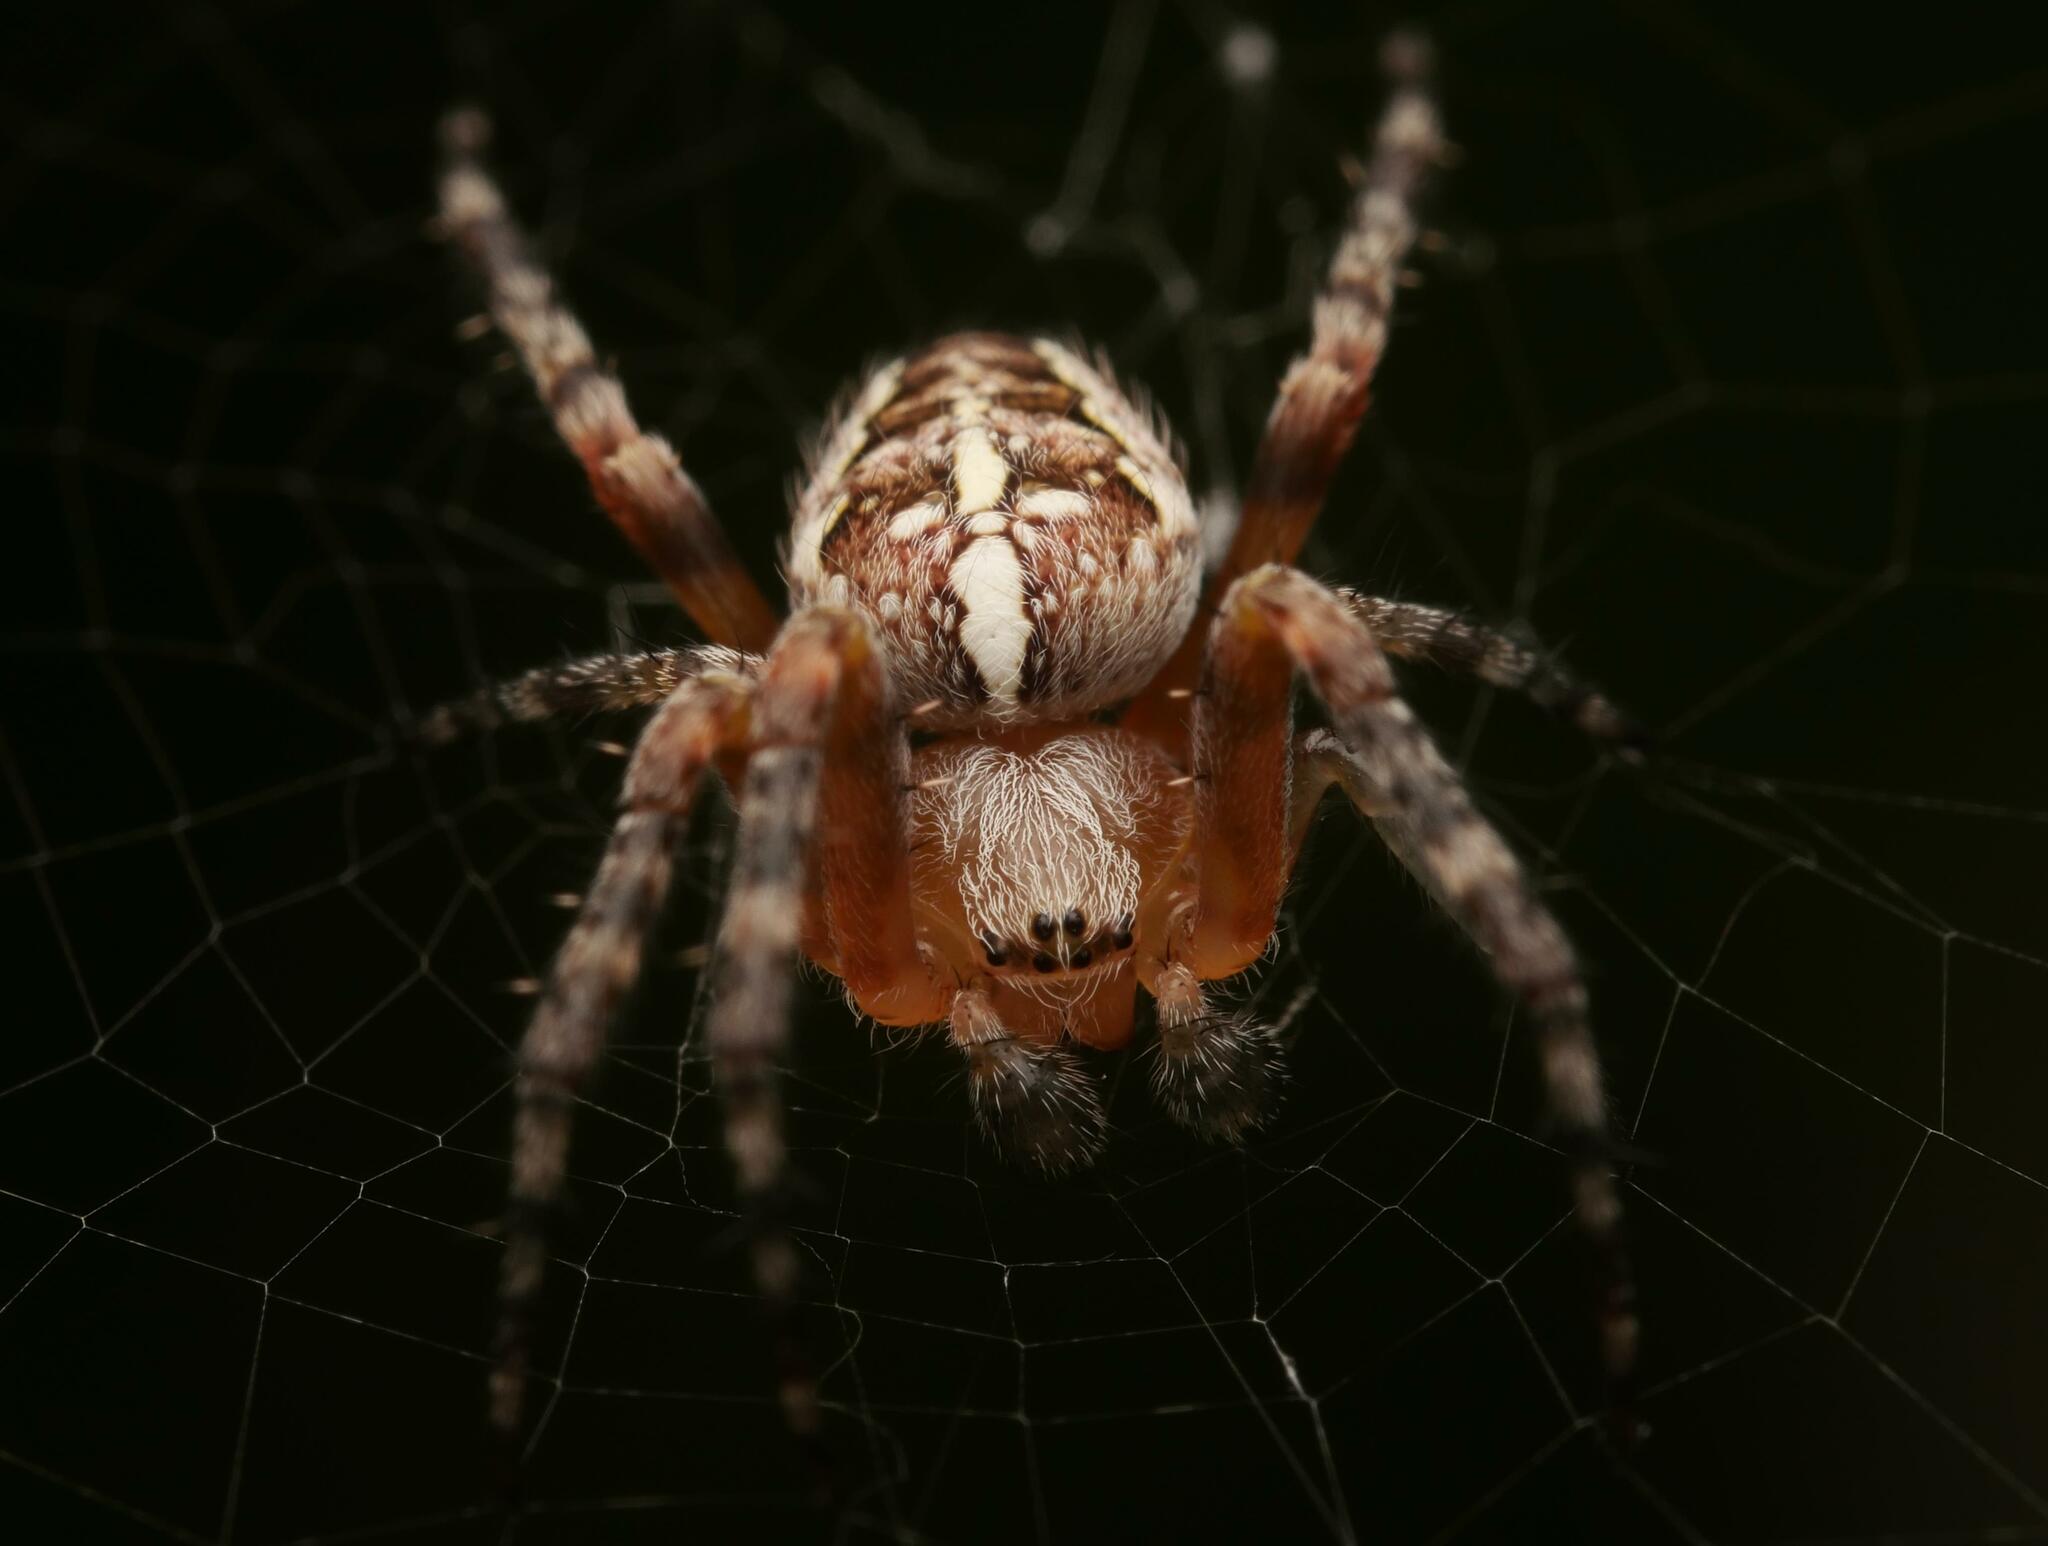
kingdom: Animalia
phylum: Arthropoda
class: Arachnida
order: Araneae
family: Araneidae
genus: Araneus
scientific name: Araneus diadematus
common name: Cross orbweaver
